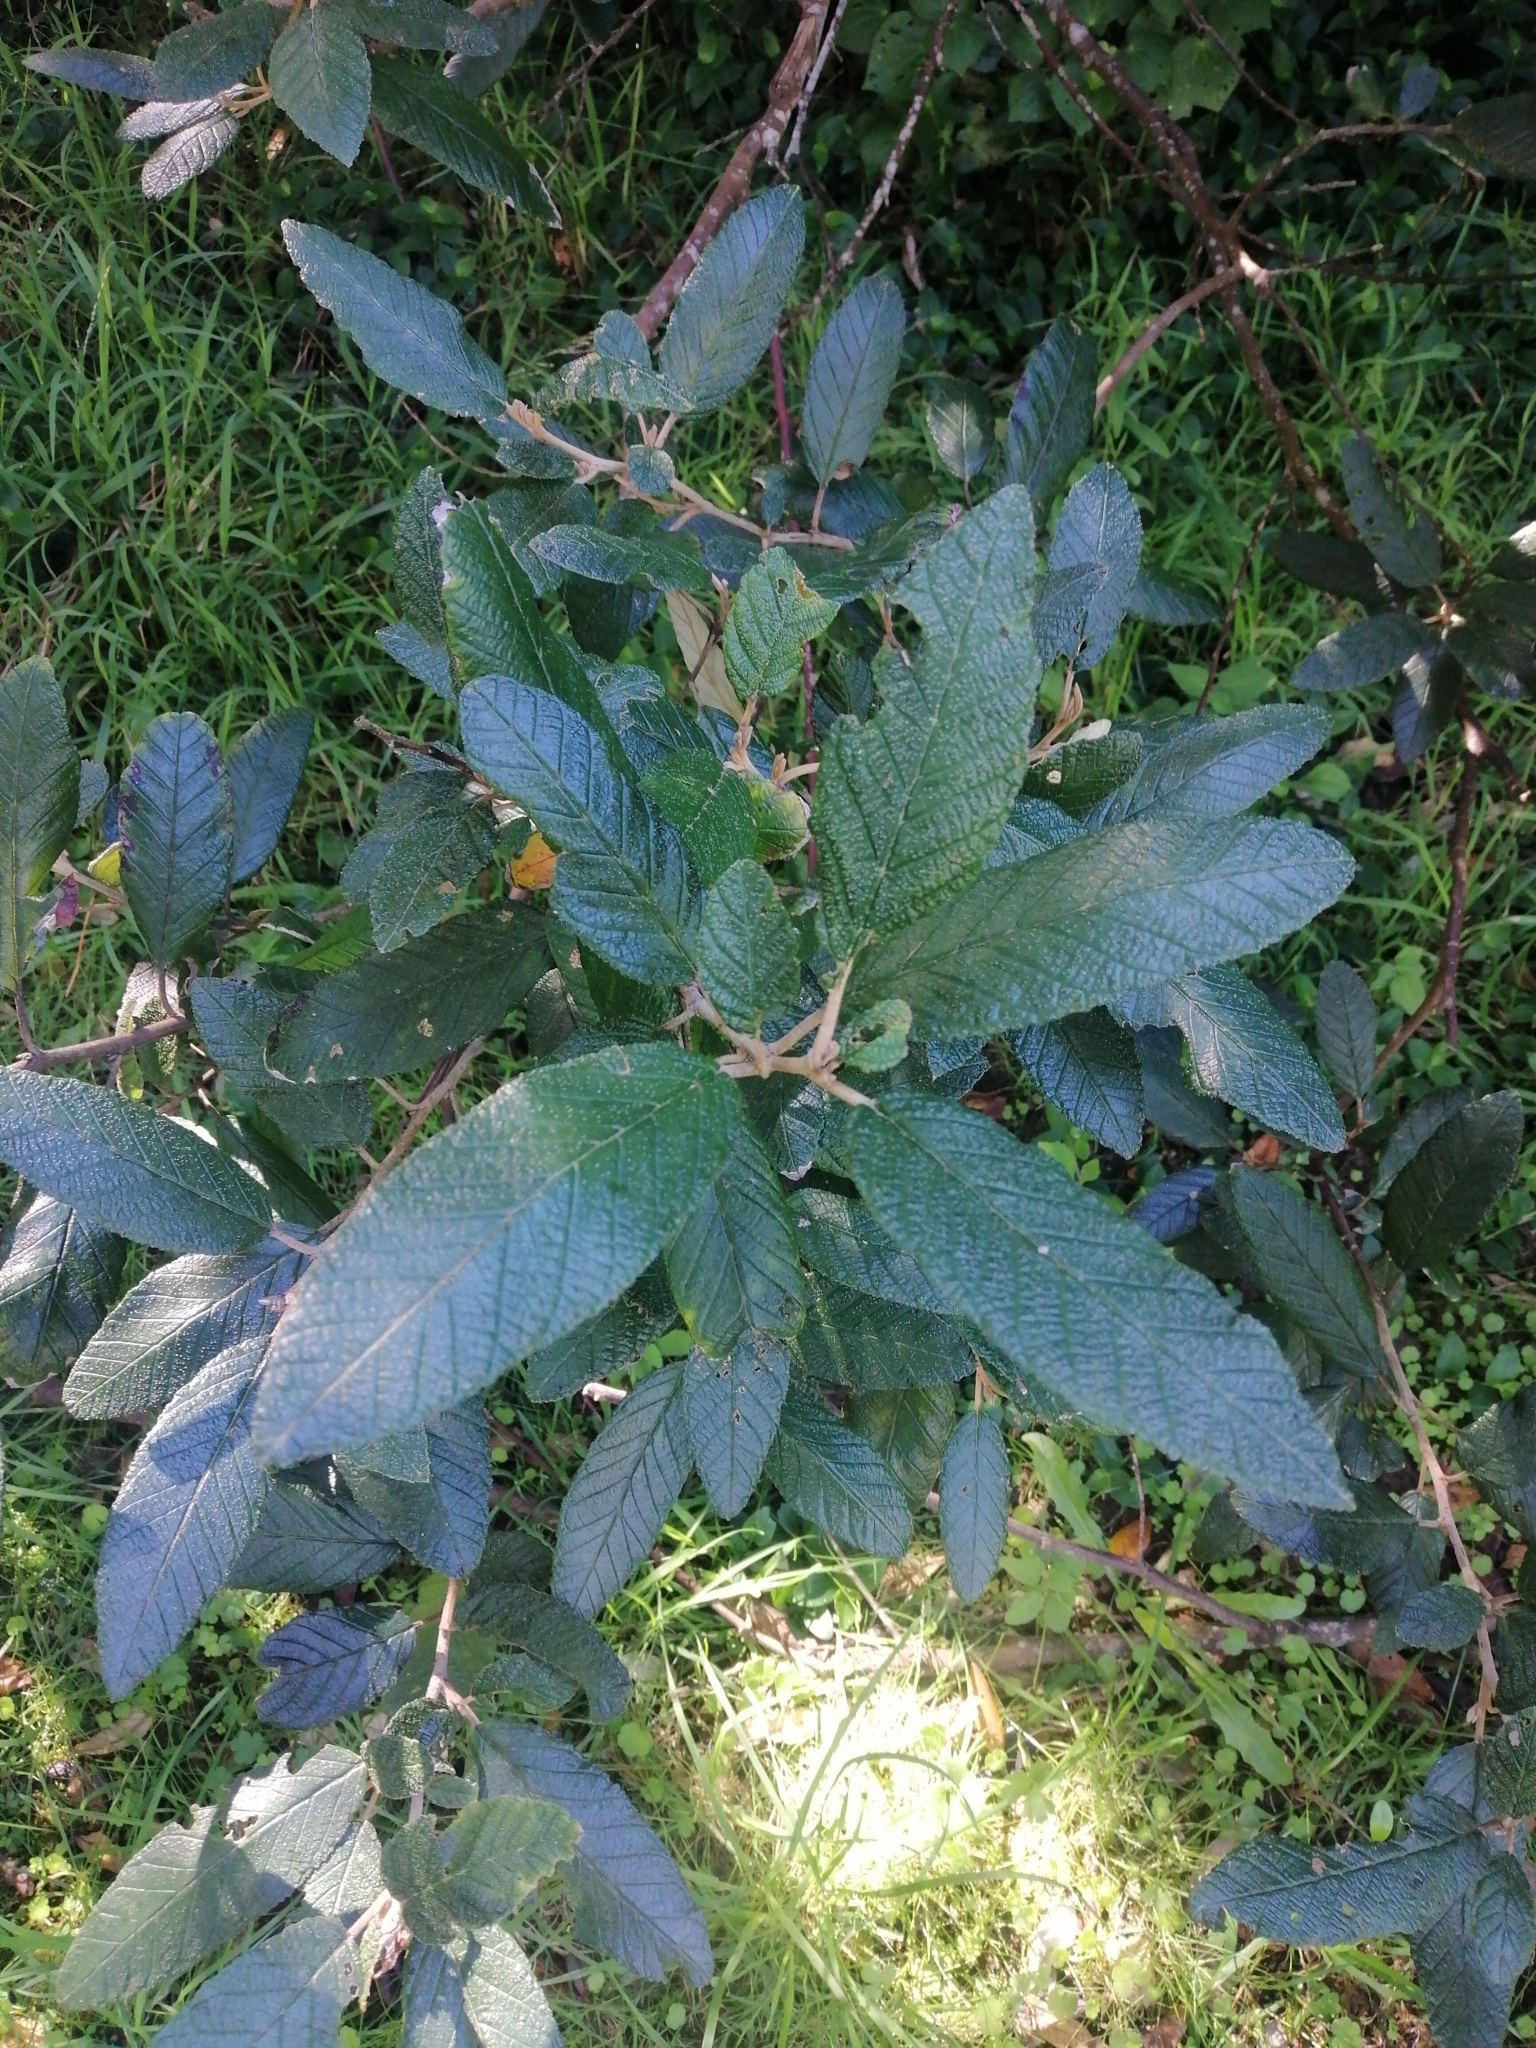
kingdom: Plantae
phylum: Tracheophyta
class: Magnoliopsida
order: Rosales
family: Rhamnaceae
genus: Pomaderris
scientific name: Pomaderris apetala
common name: Hazel pomaderris
